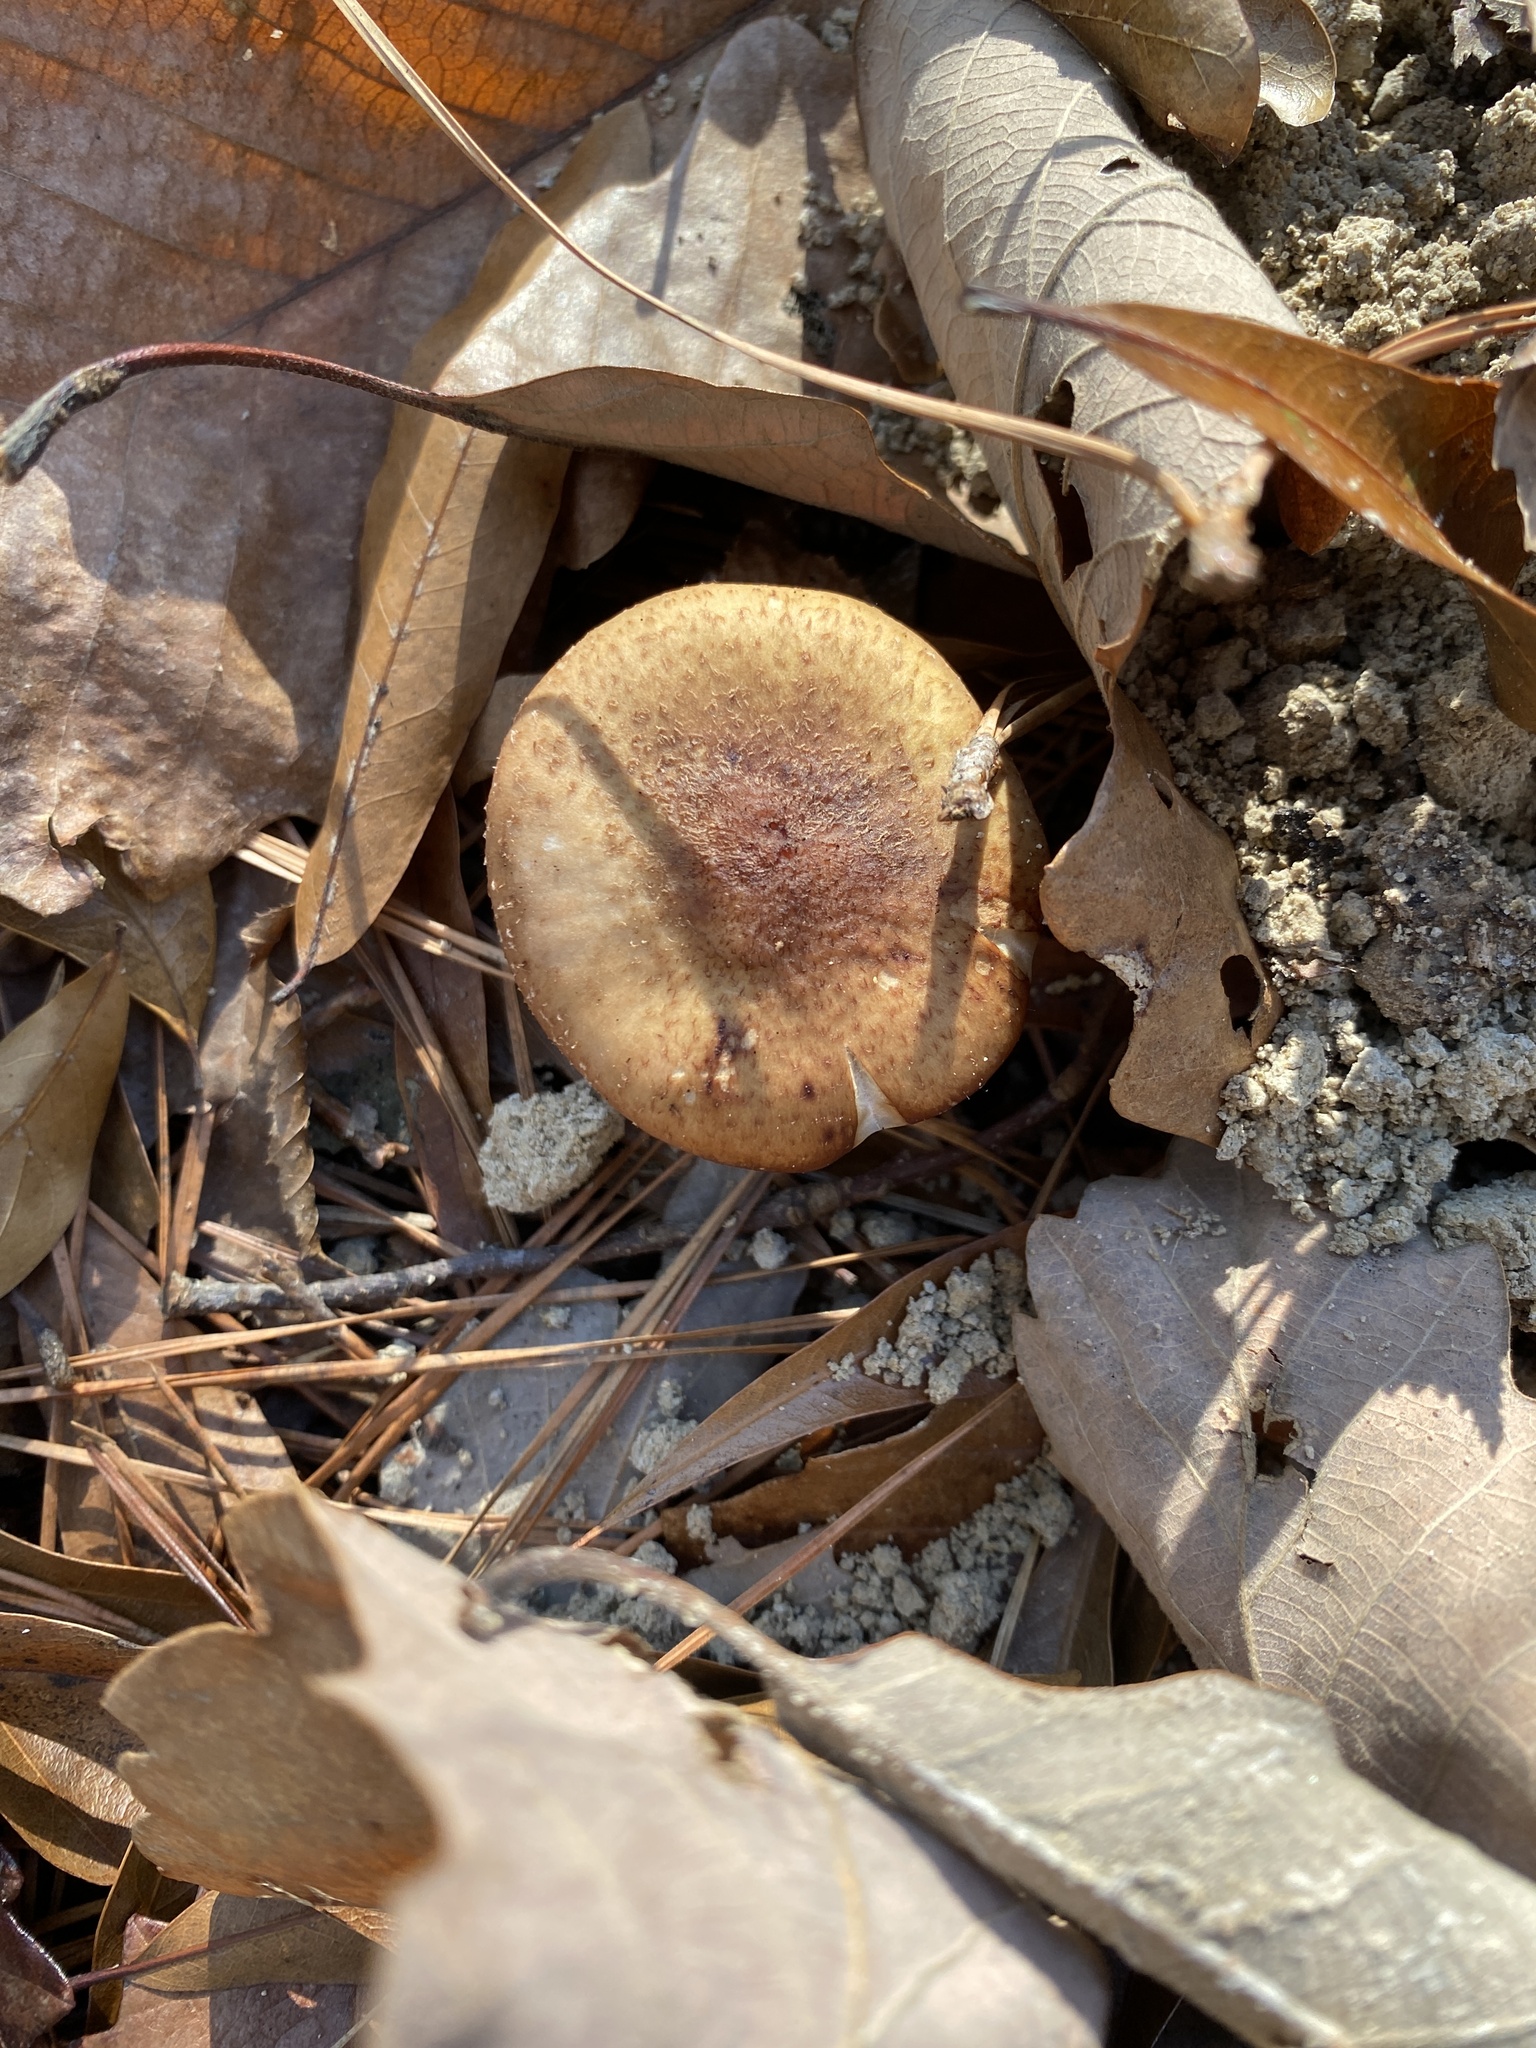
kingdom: Fungi
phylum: Basidiomycota
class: Agaricomycetes
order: Agaricales
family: Physalacriaceae
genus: Armillaria
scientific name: Armillaria gallica
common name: Bulbous honey fungus
